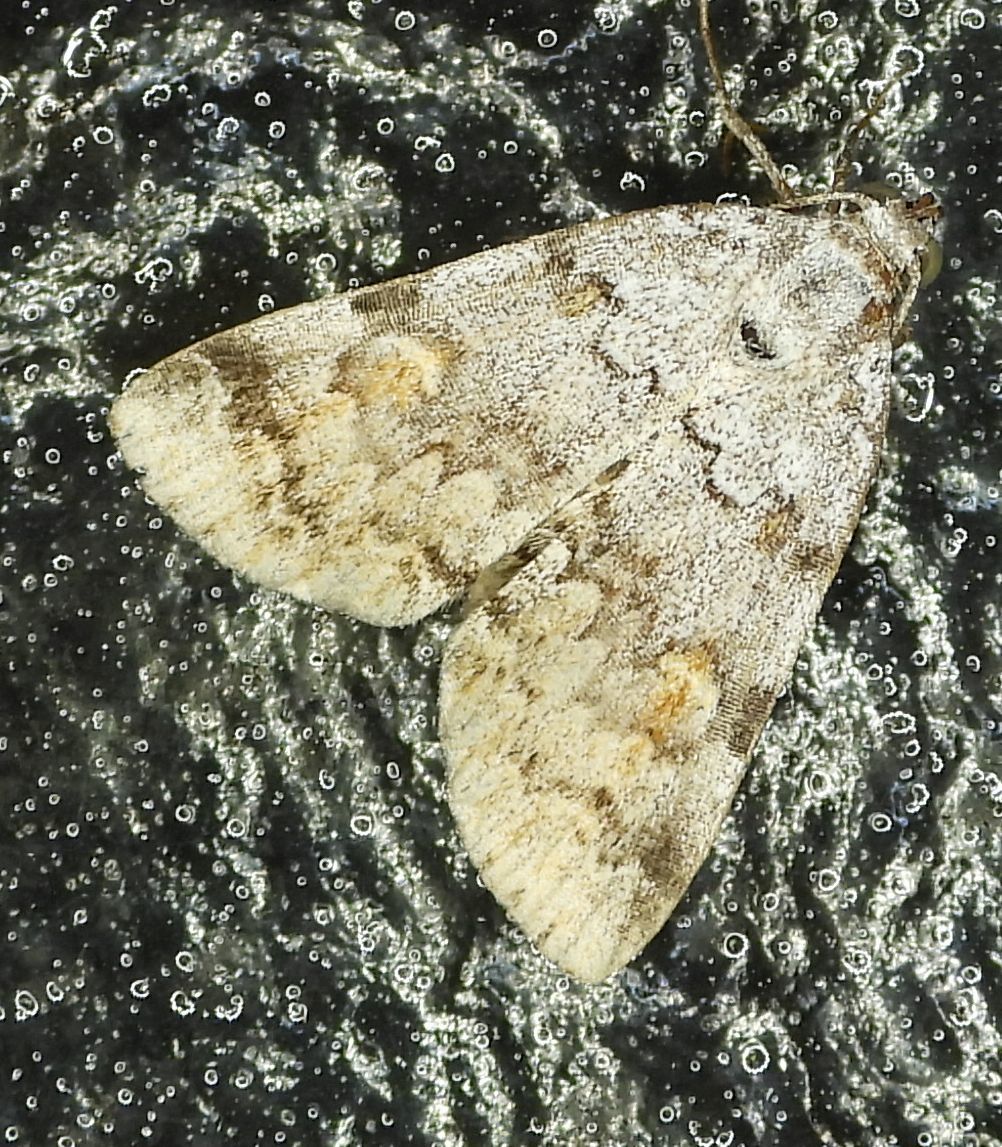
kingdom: Animalia
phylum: Arthropoda
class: Insecta
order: Lepidoptera
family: Erebidae
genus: Idia
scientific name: Idia americalis
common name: American idia moth
